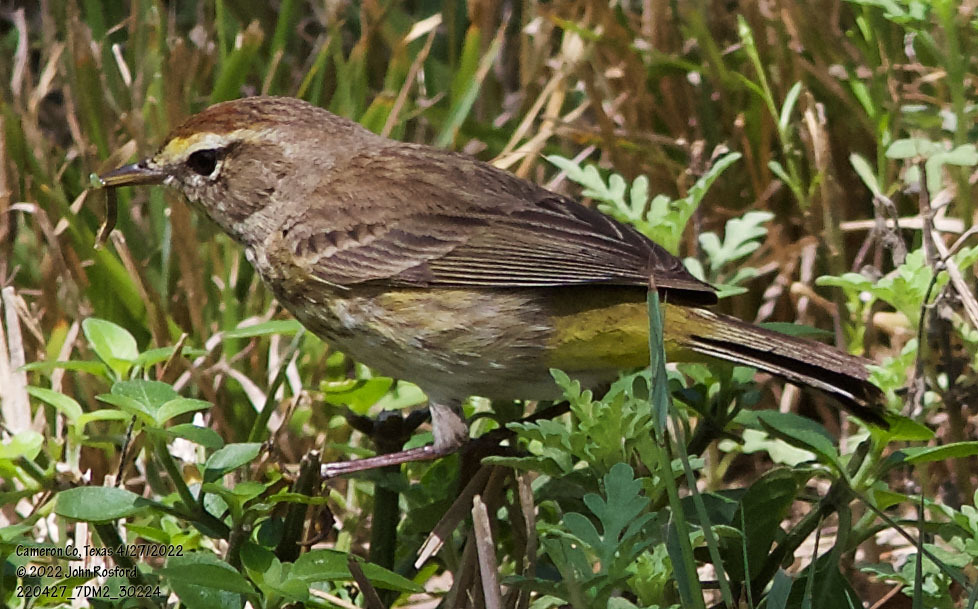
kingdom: Animalia
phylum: Chordata
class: Aves
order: Passeriformes
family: Parulidae
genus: Setophaga
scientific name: Setophaga palmarum
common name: Palm warbler
